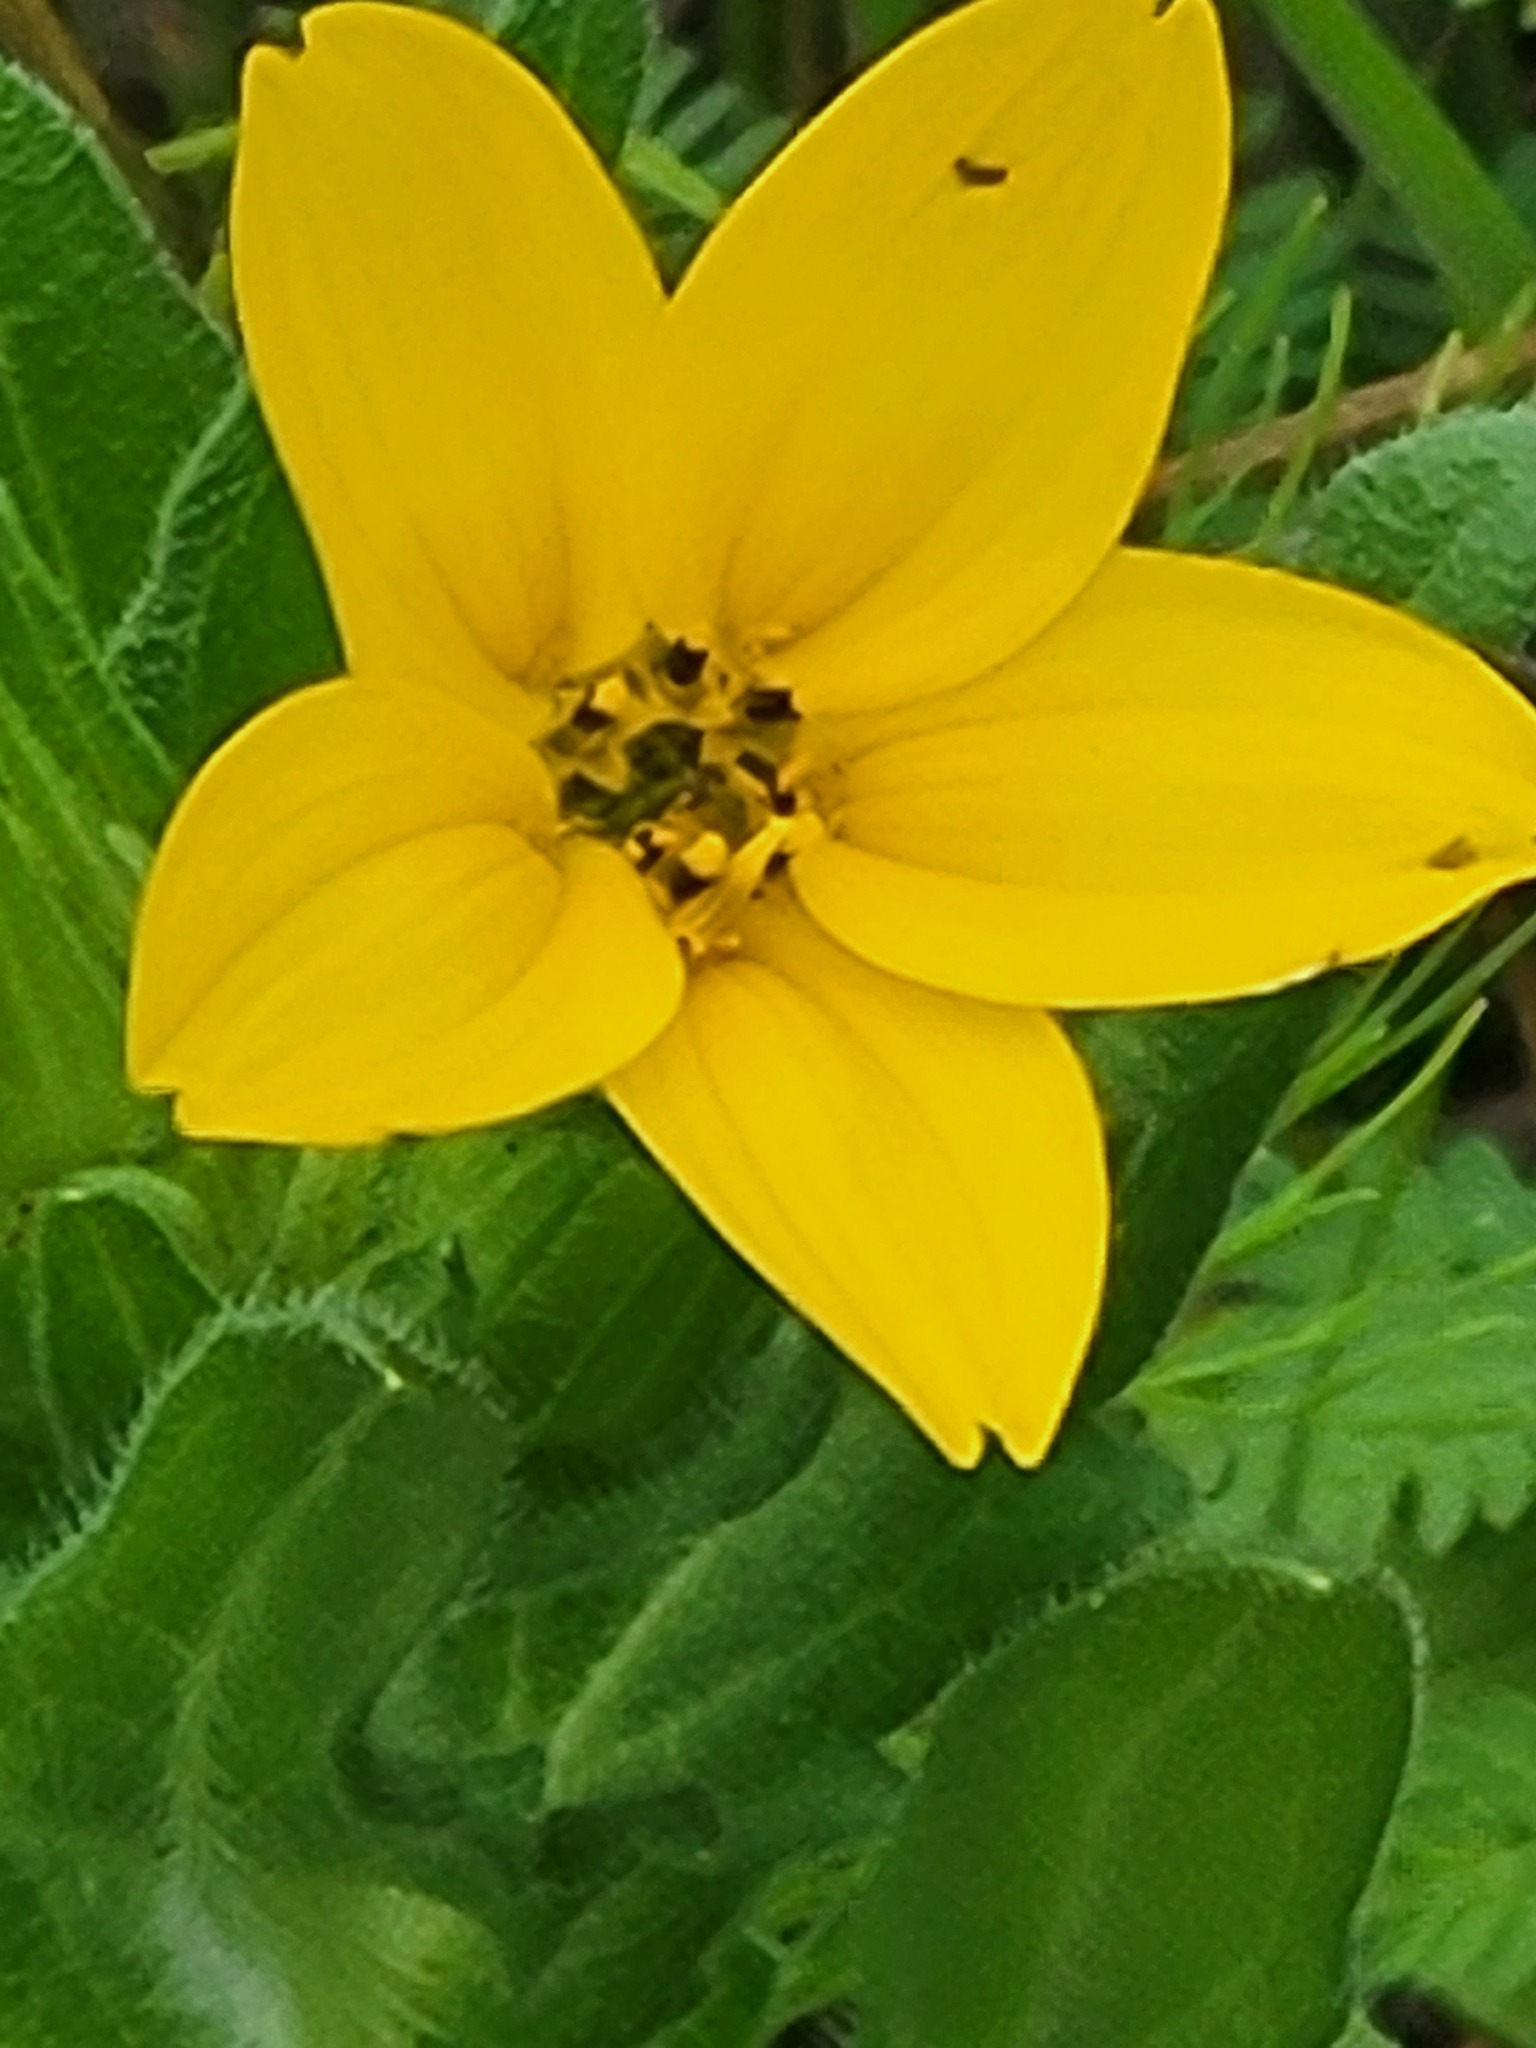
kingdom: Plantae
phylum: Tracheophyta
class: Magnoliopsida
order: Asterales
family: Asteraceae
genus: Lindheimera
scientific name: Lindheimera texana
